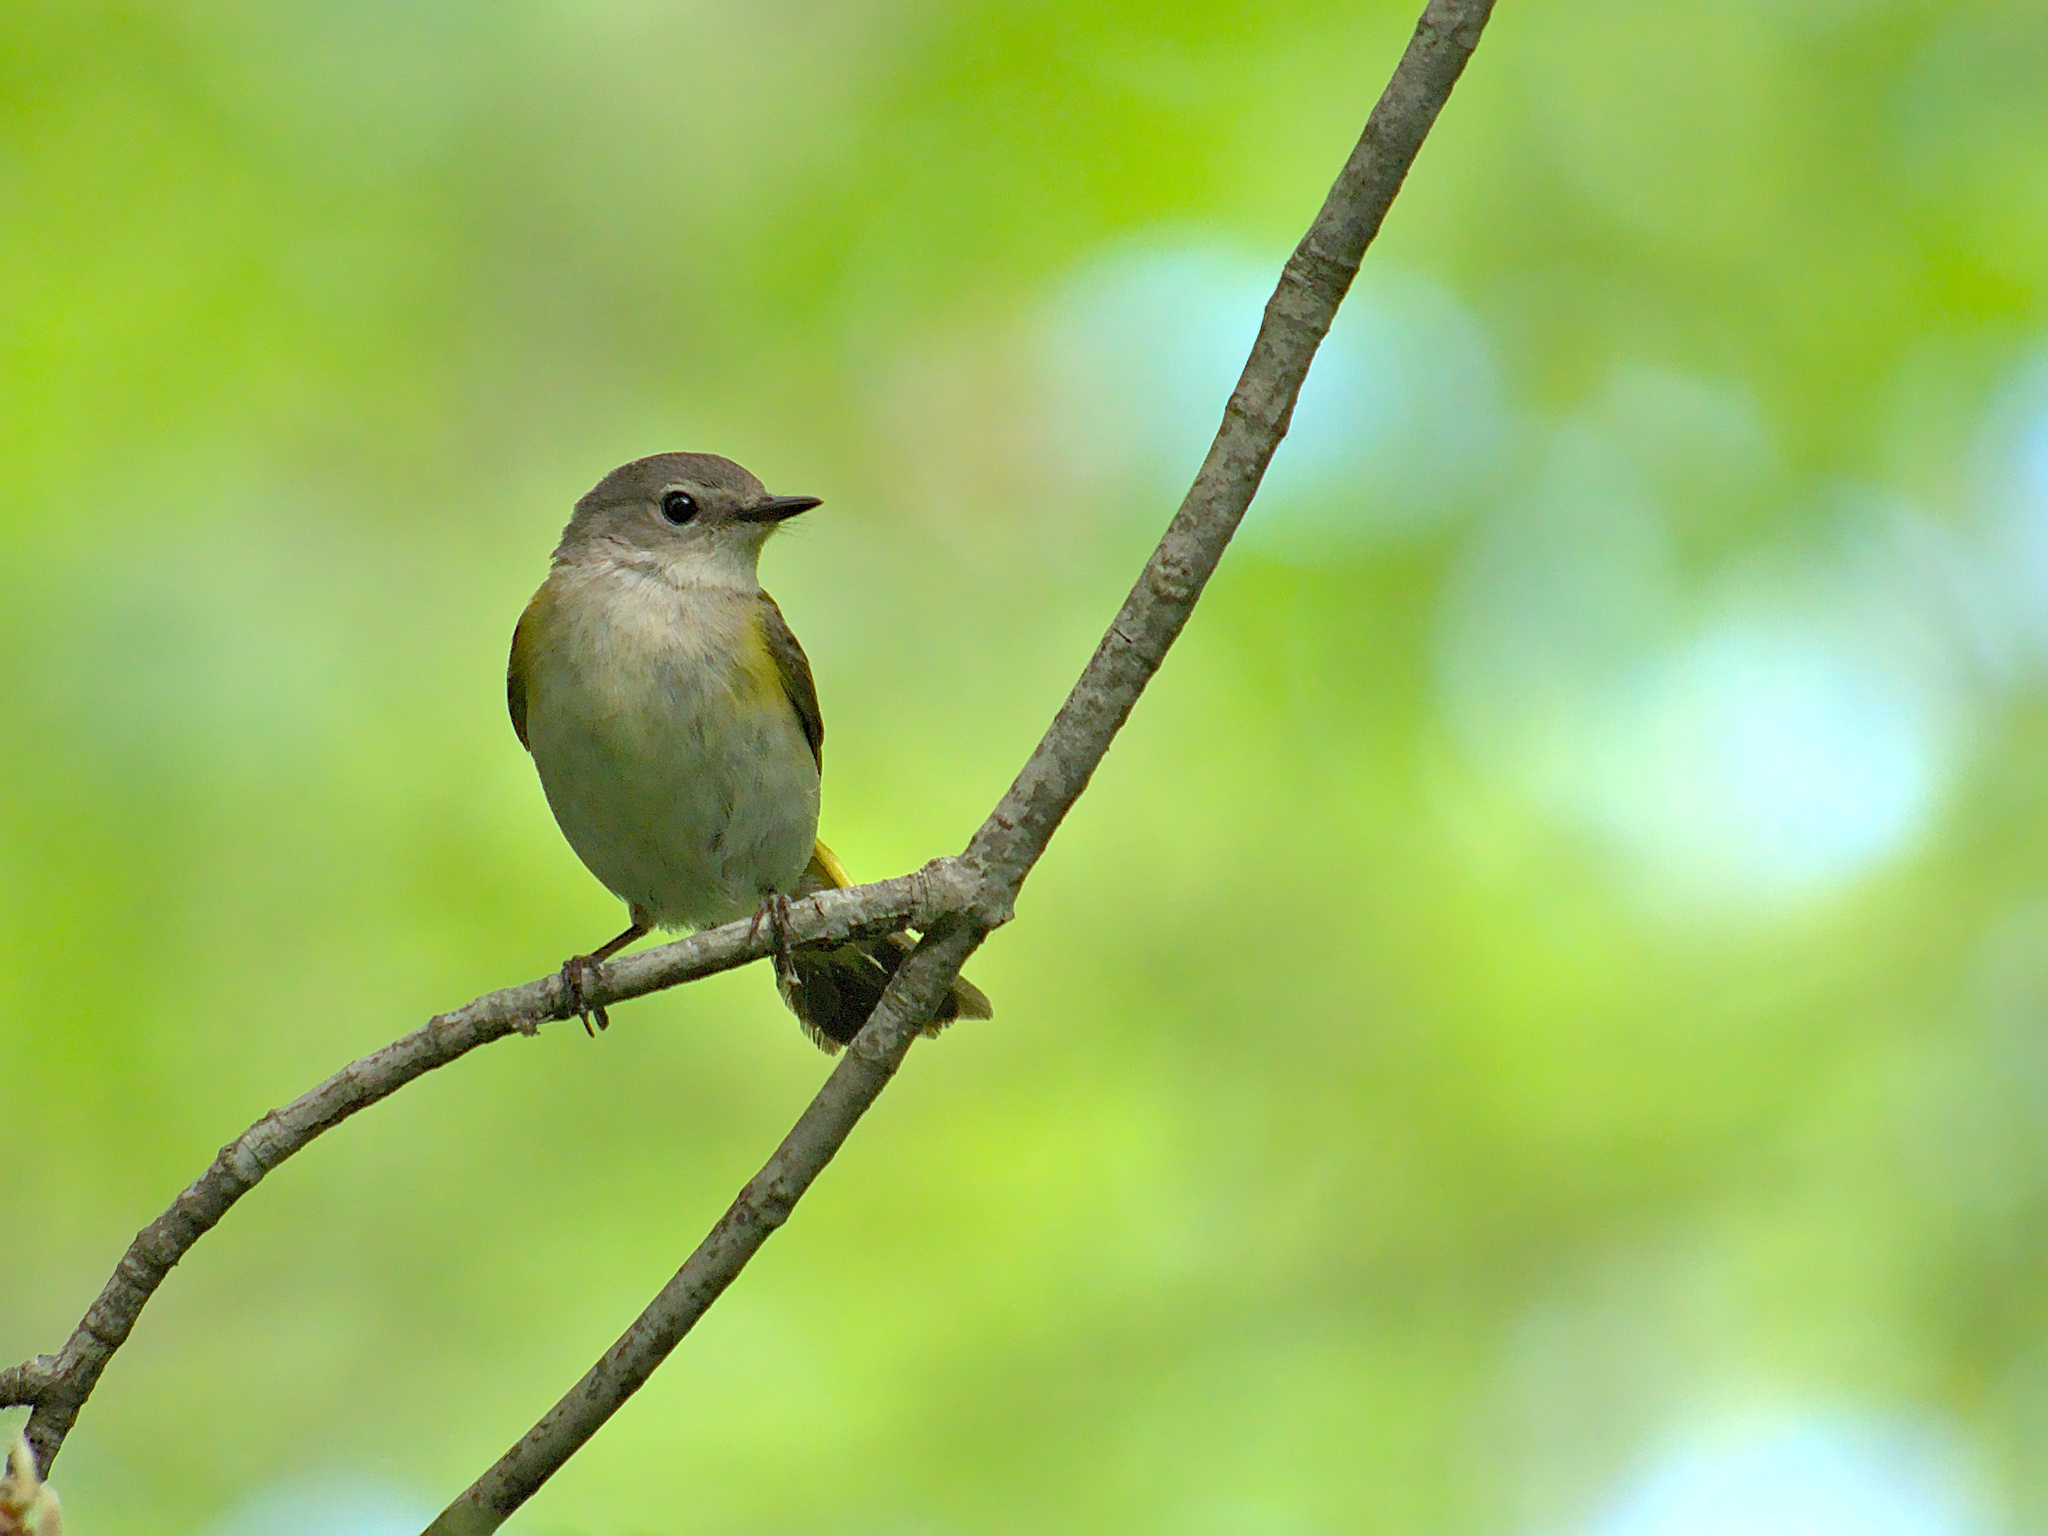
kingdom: Animalia
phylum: Chordata
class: Aves
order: Passeriformes
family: Parulidae
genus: Setophaga
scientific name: Setophaga ruticilla
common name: American redstart
